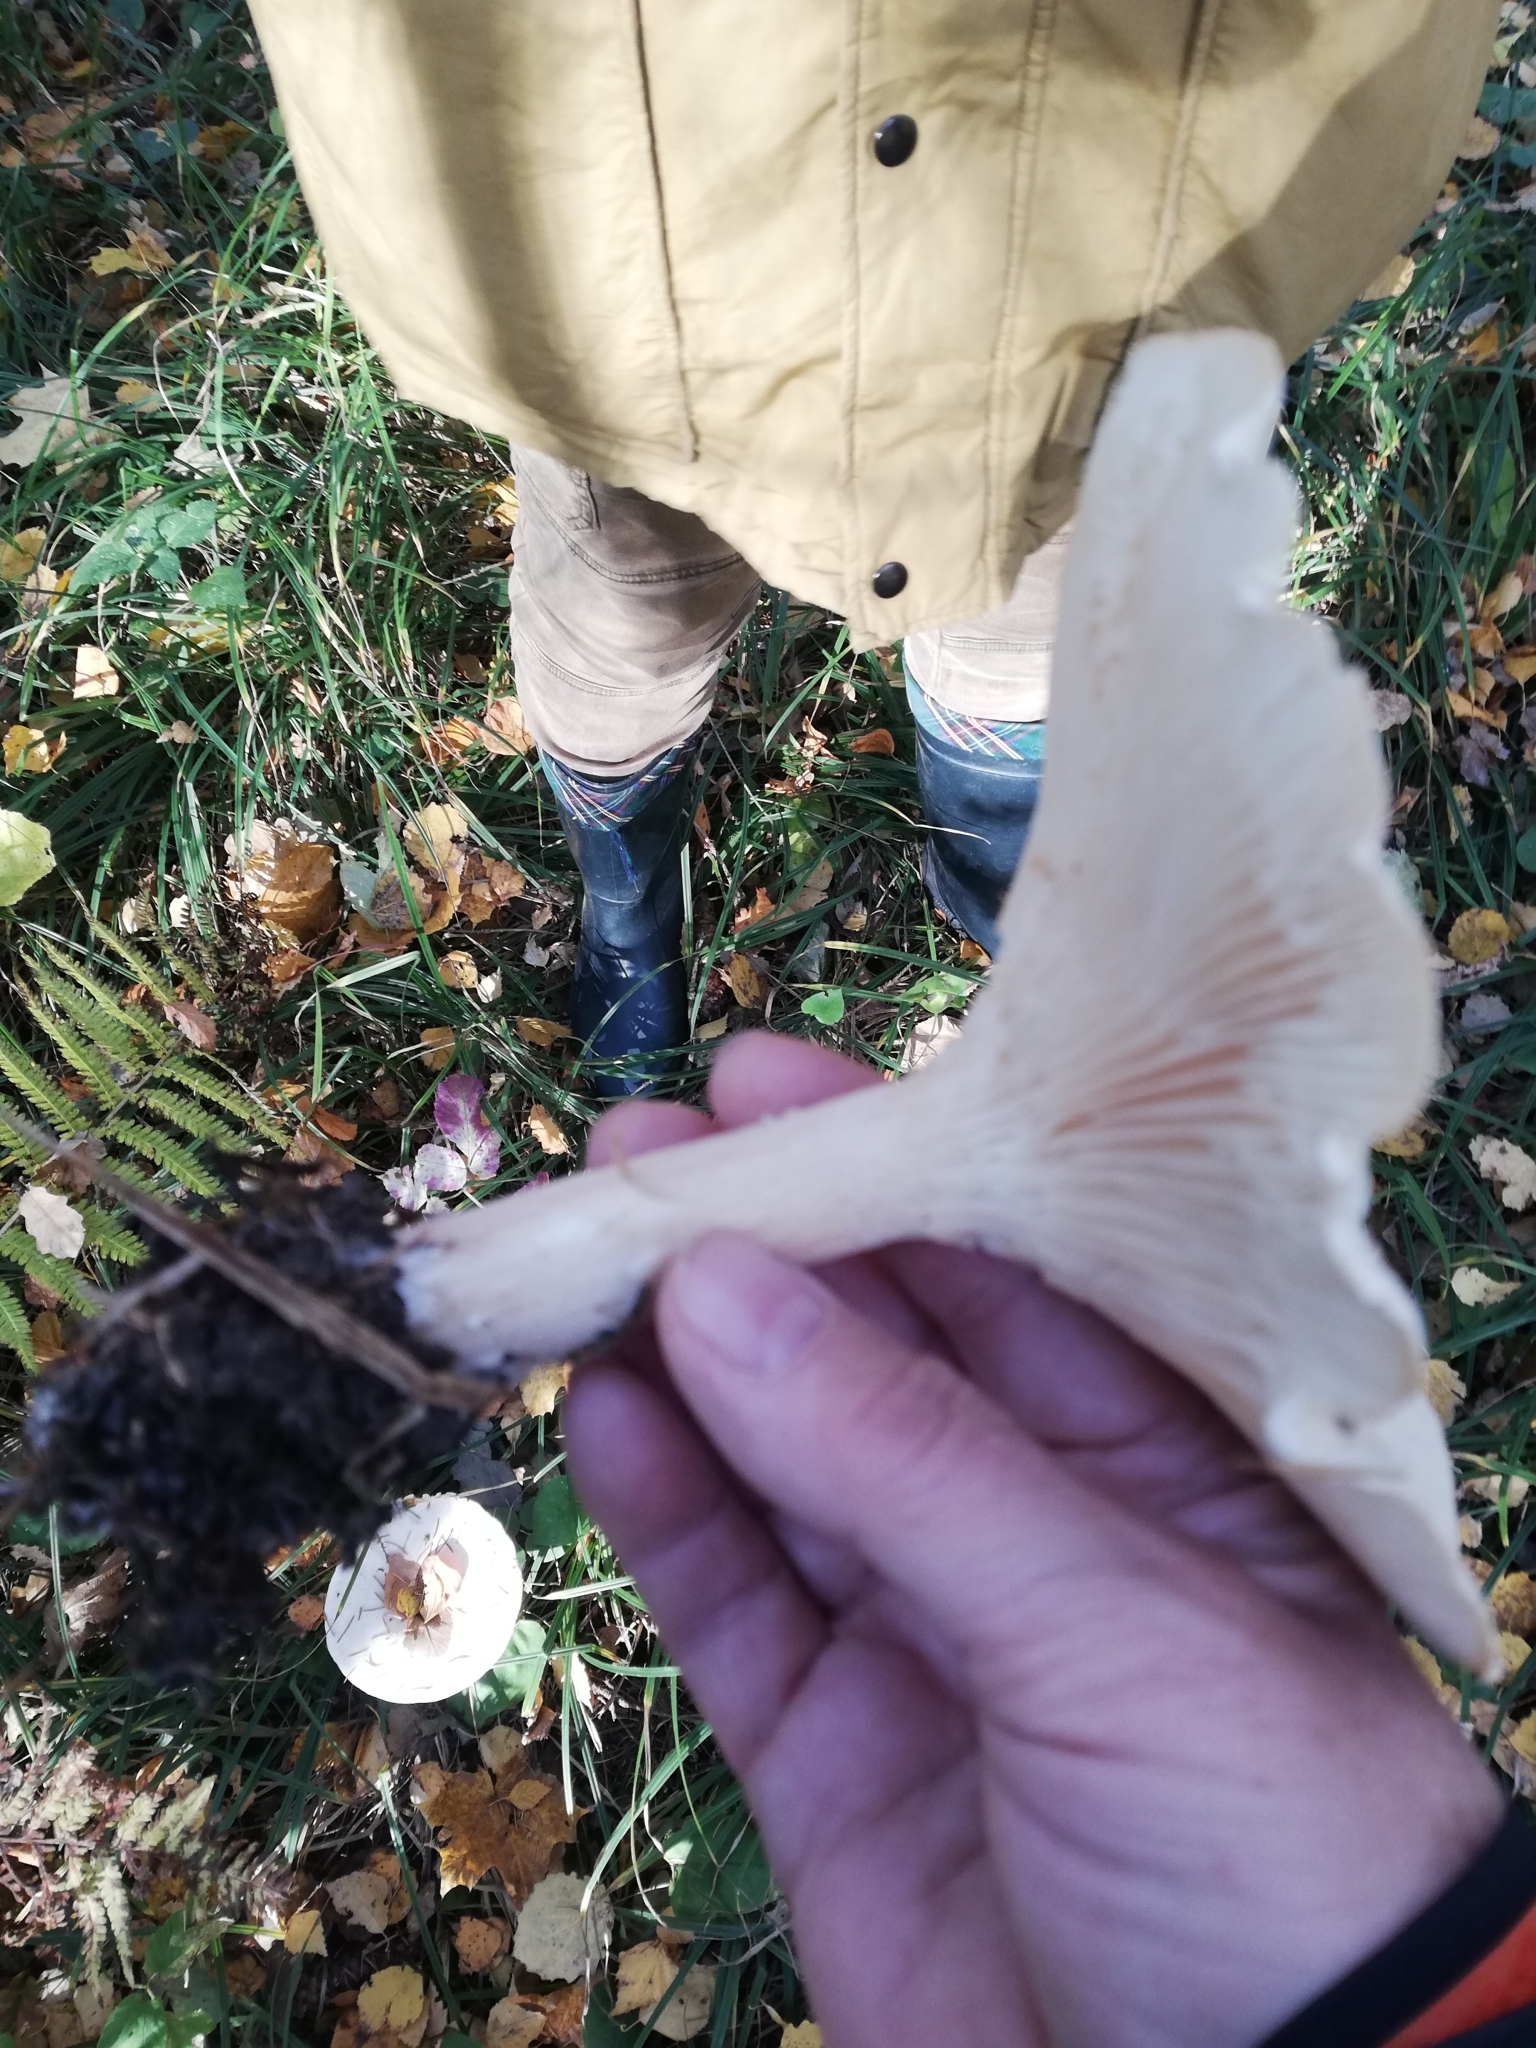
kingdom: Fungi
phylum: Basidiomycota
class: Agaricomycetes
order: Agaricales
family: Tricholomataceae
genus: Infundibulicybe
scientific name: Infundibulicybe geotropa
